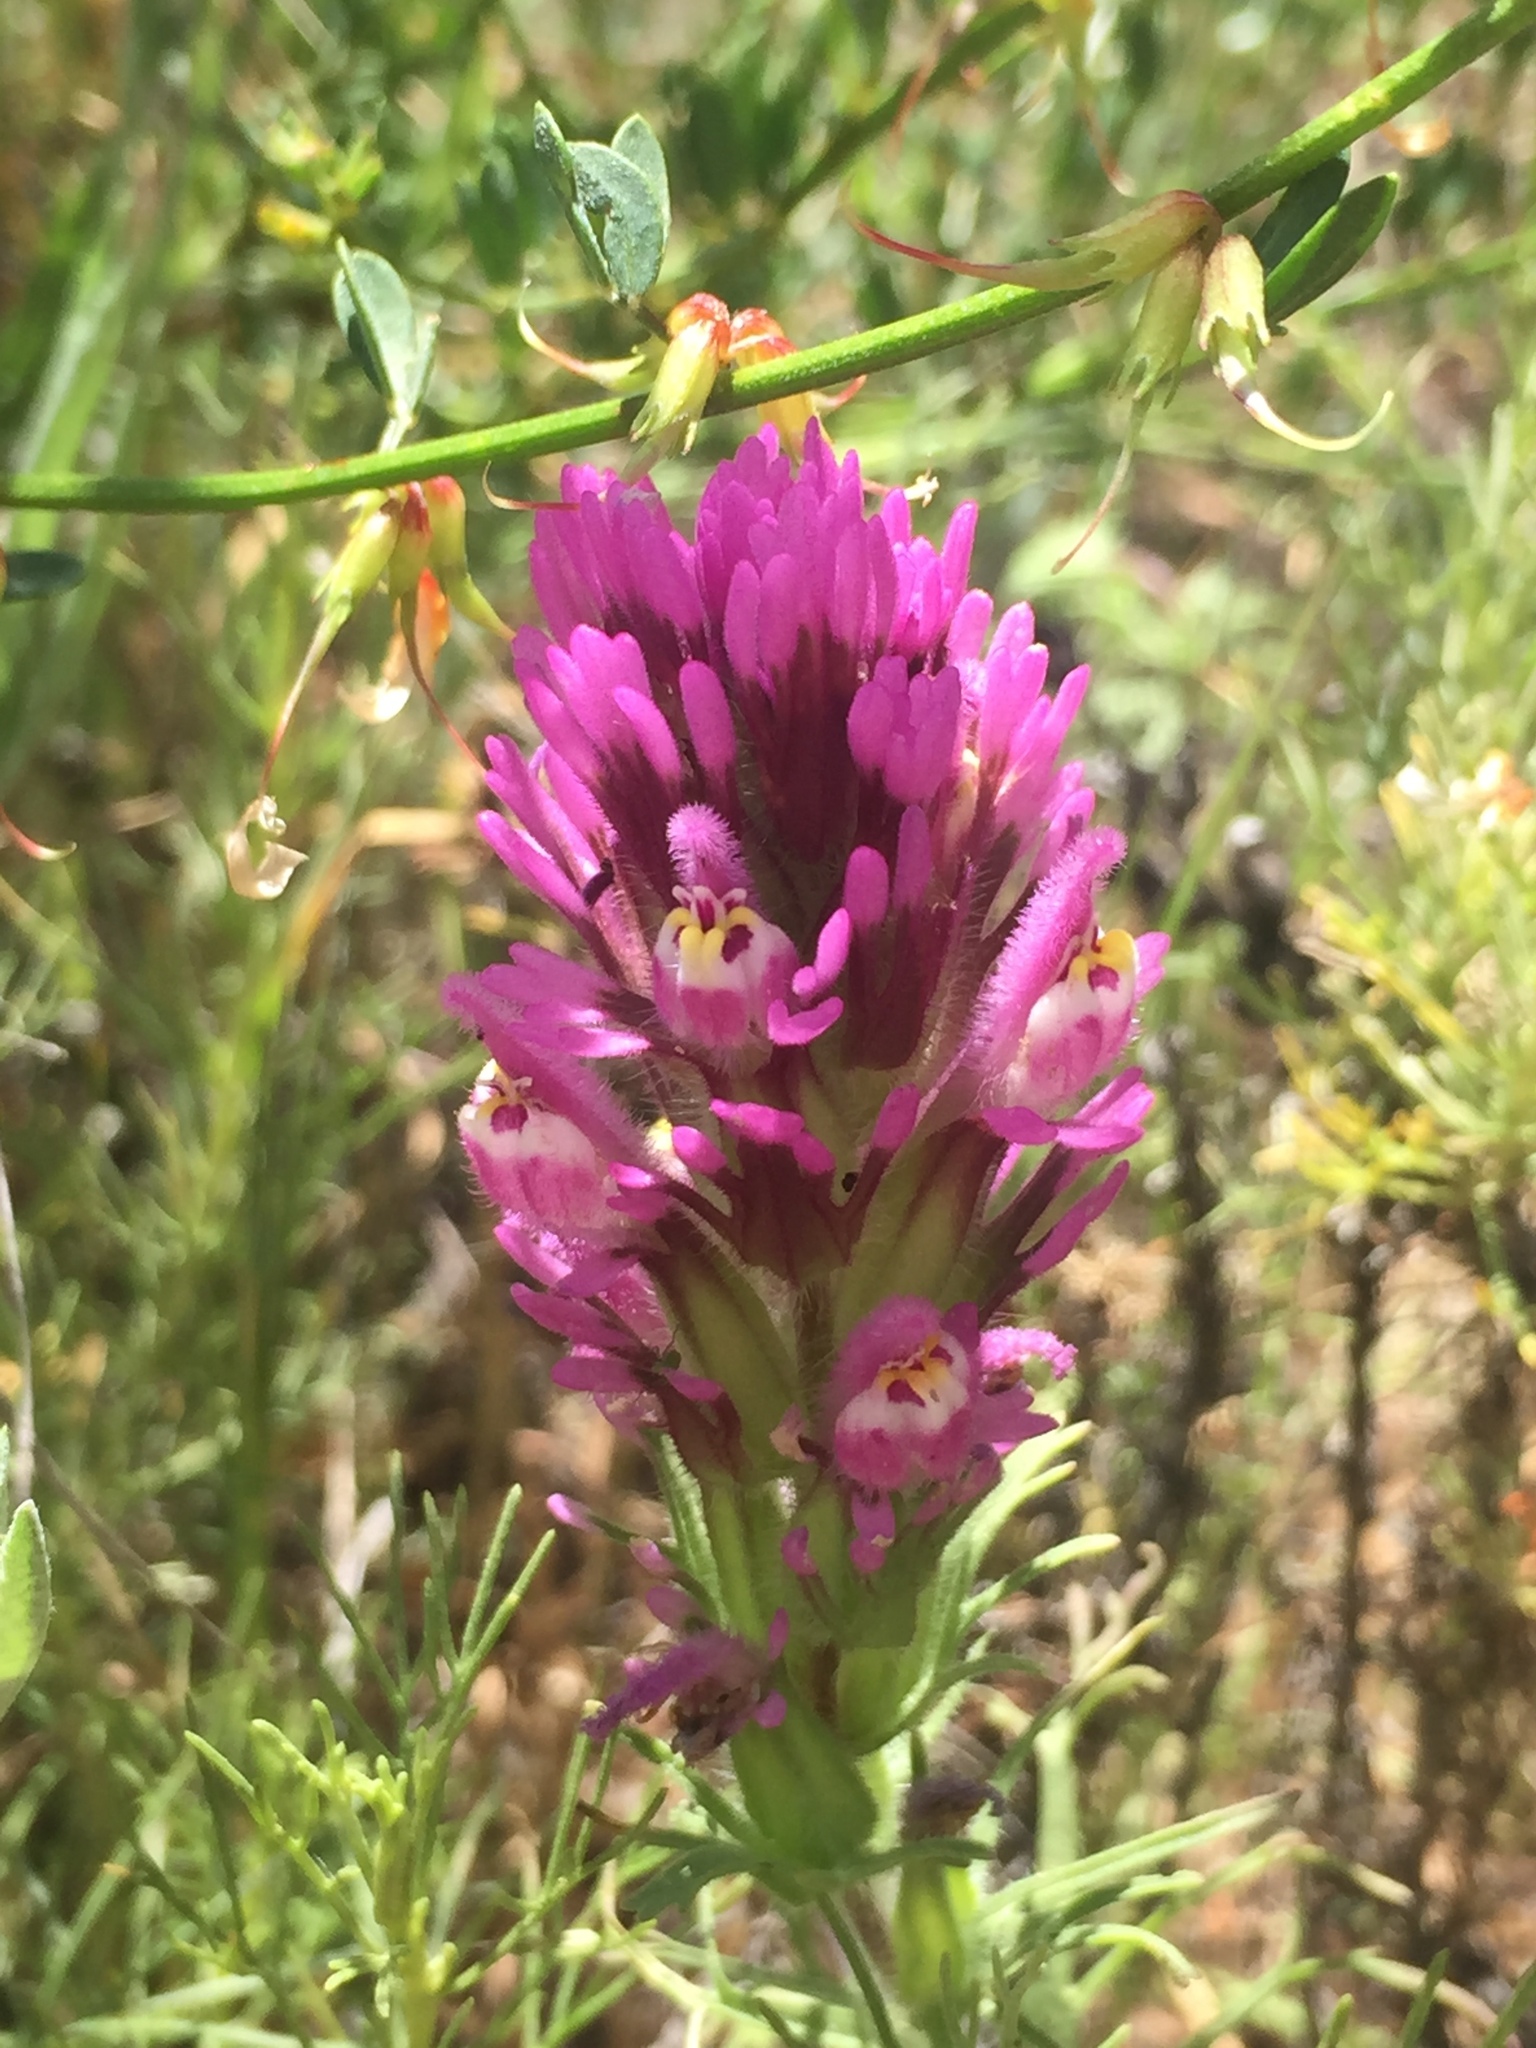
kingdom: Plantae
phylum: Tracheophyta
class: Magnoliopsida
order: Lamiales
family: Orobanchaceae
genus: Castilleja
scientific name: Castilleja exserta
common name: Purple owl-clover
